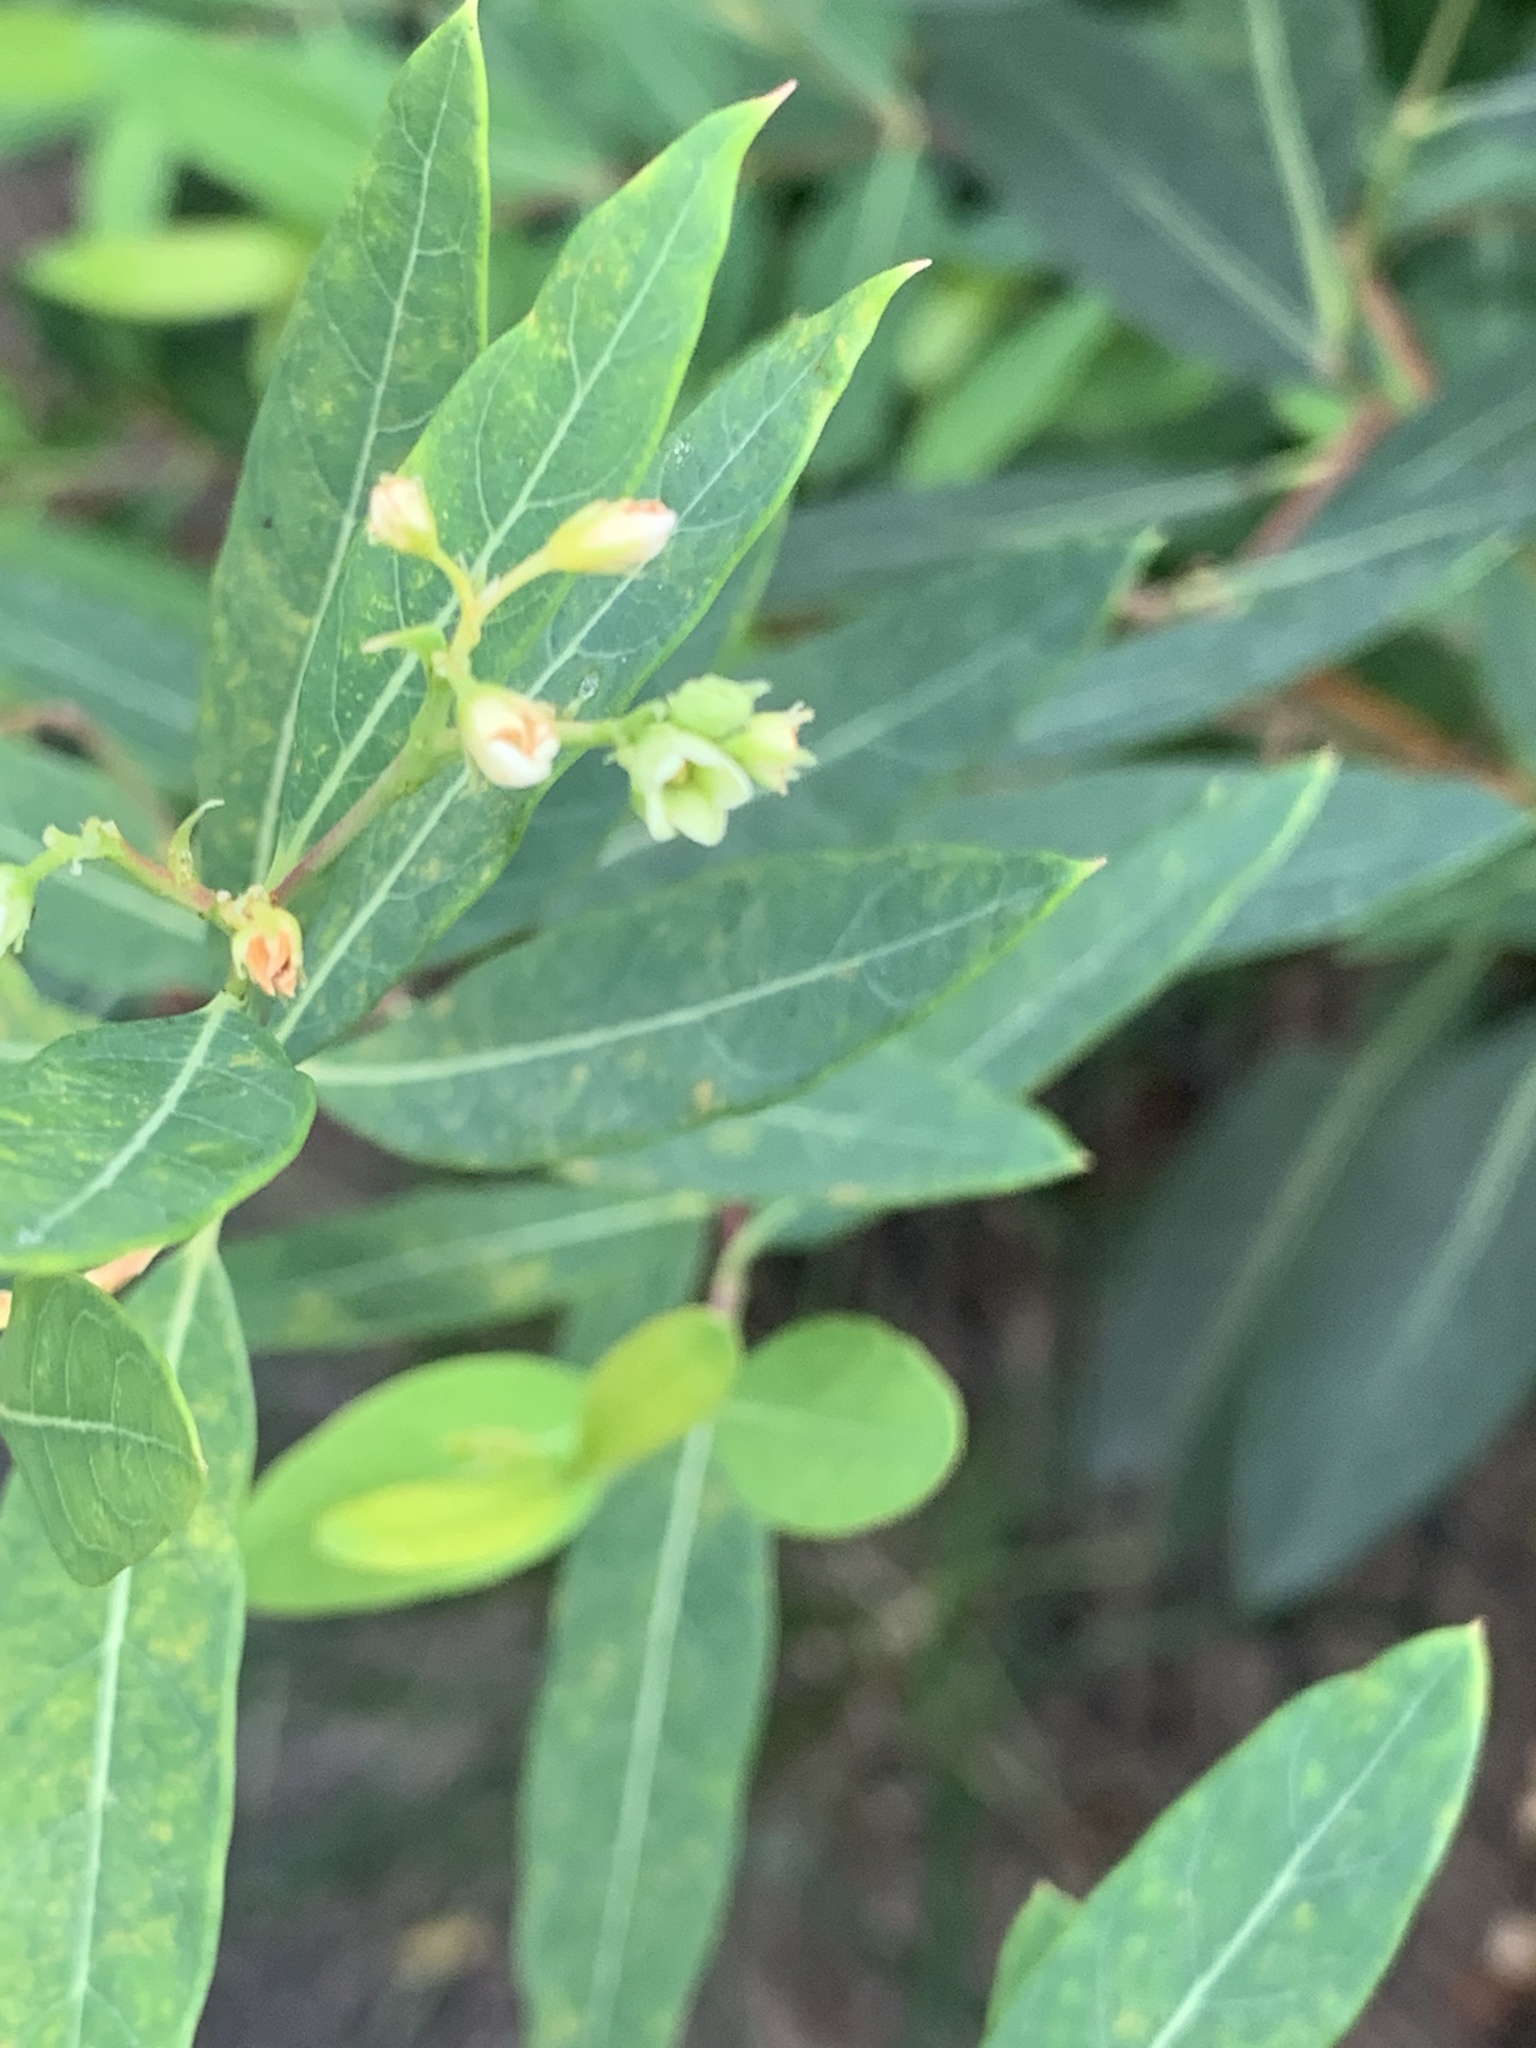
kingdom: Plantae
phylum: Tracheophyta
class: Magnoliopsida
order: Gentianales
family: Apocynaceae
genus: Apocynum
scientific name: Apocynum cannabinum
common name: Hemp dogbane
